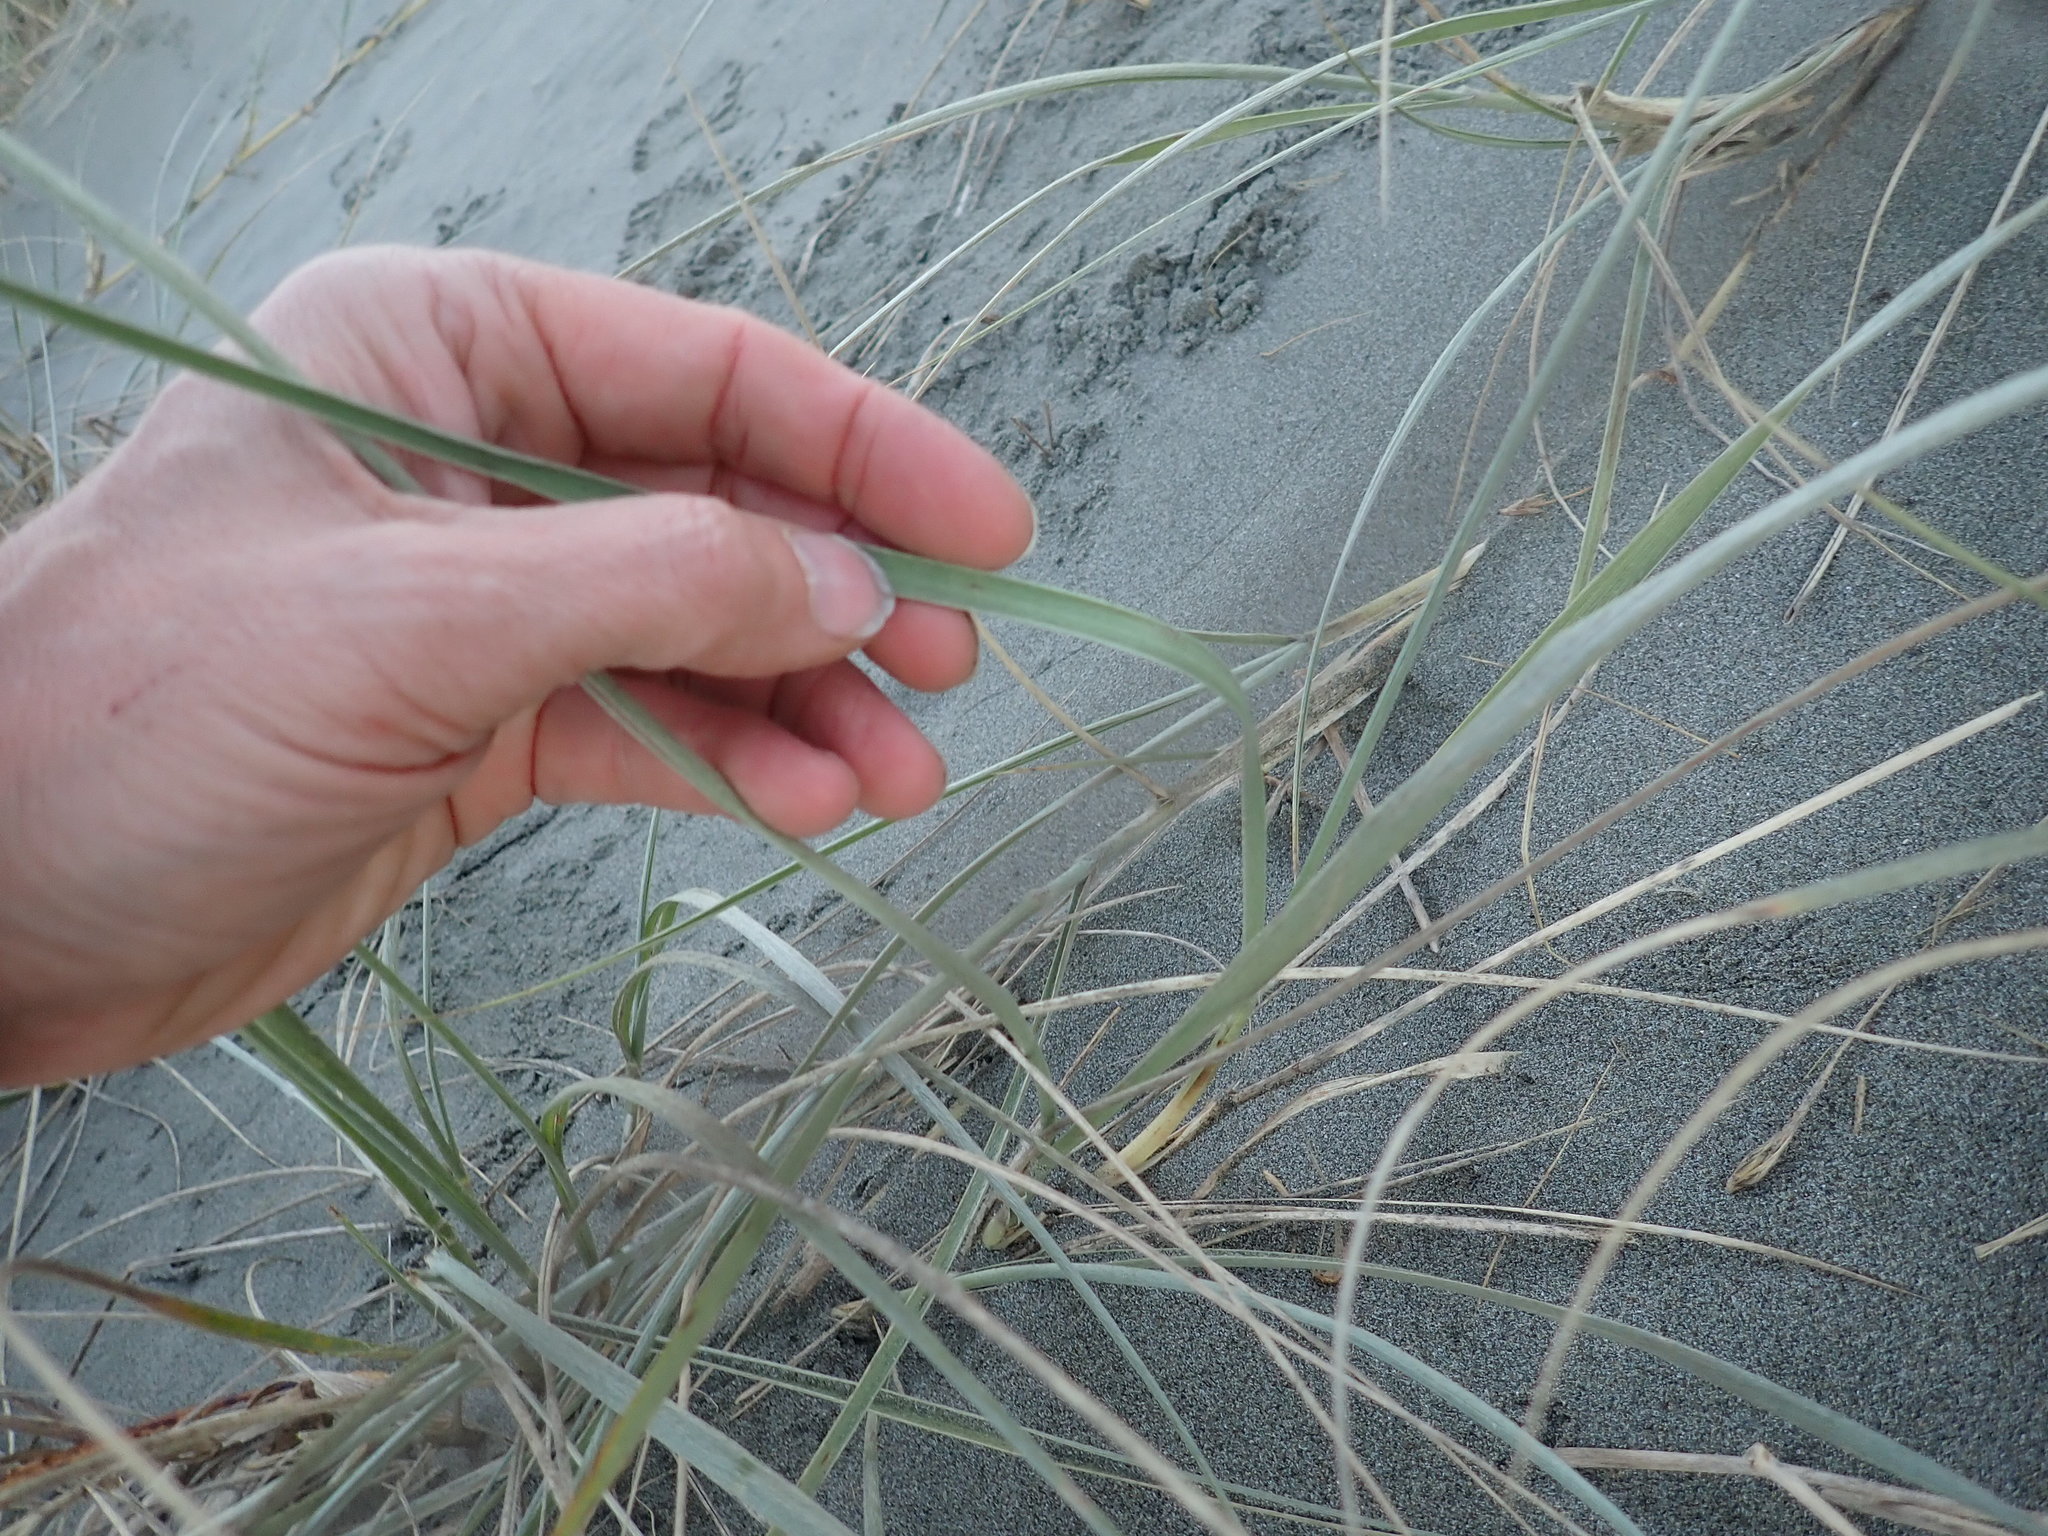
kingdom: Plantae
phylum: Tracheophyta
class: Liliopsida
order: Poales
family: Poaceae
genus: Spinifex
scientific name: Spinifex sericeus
